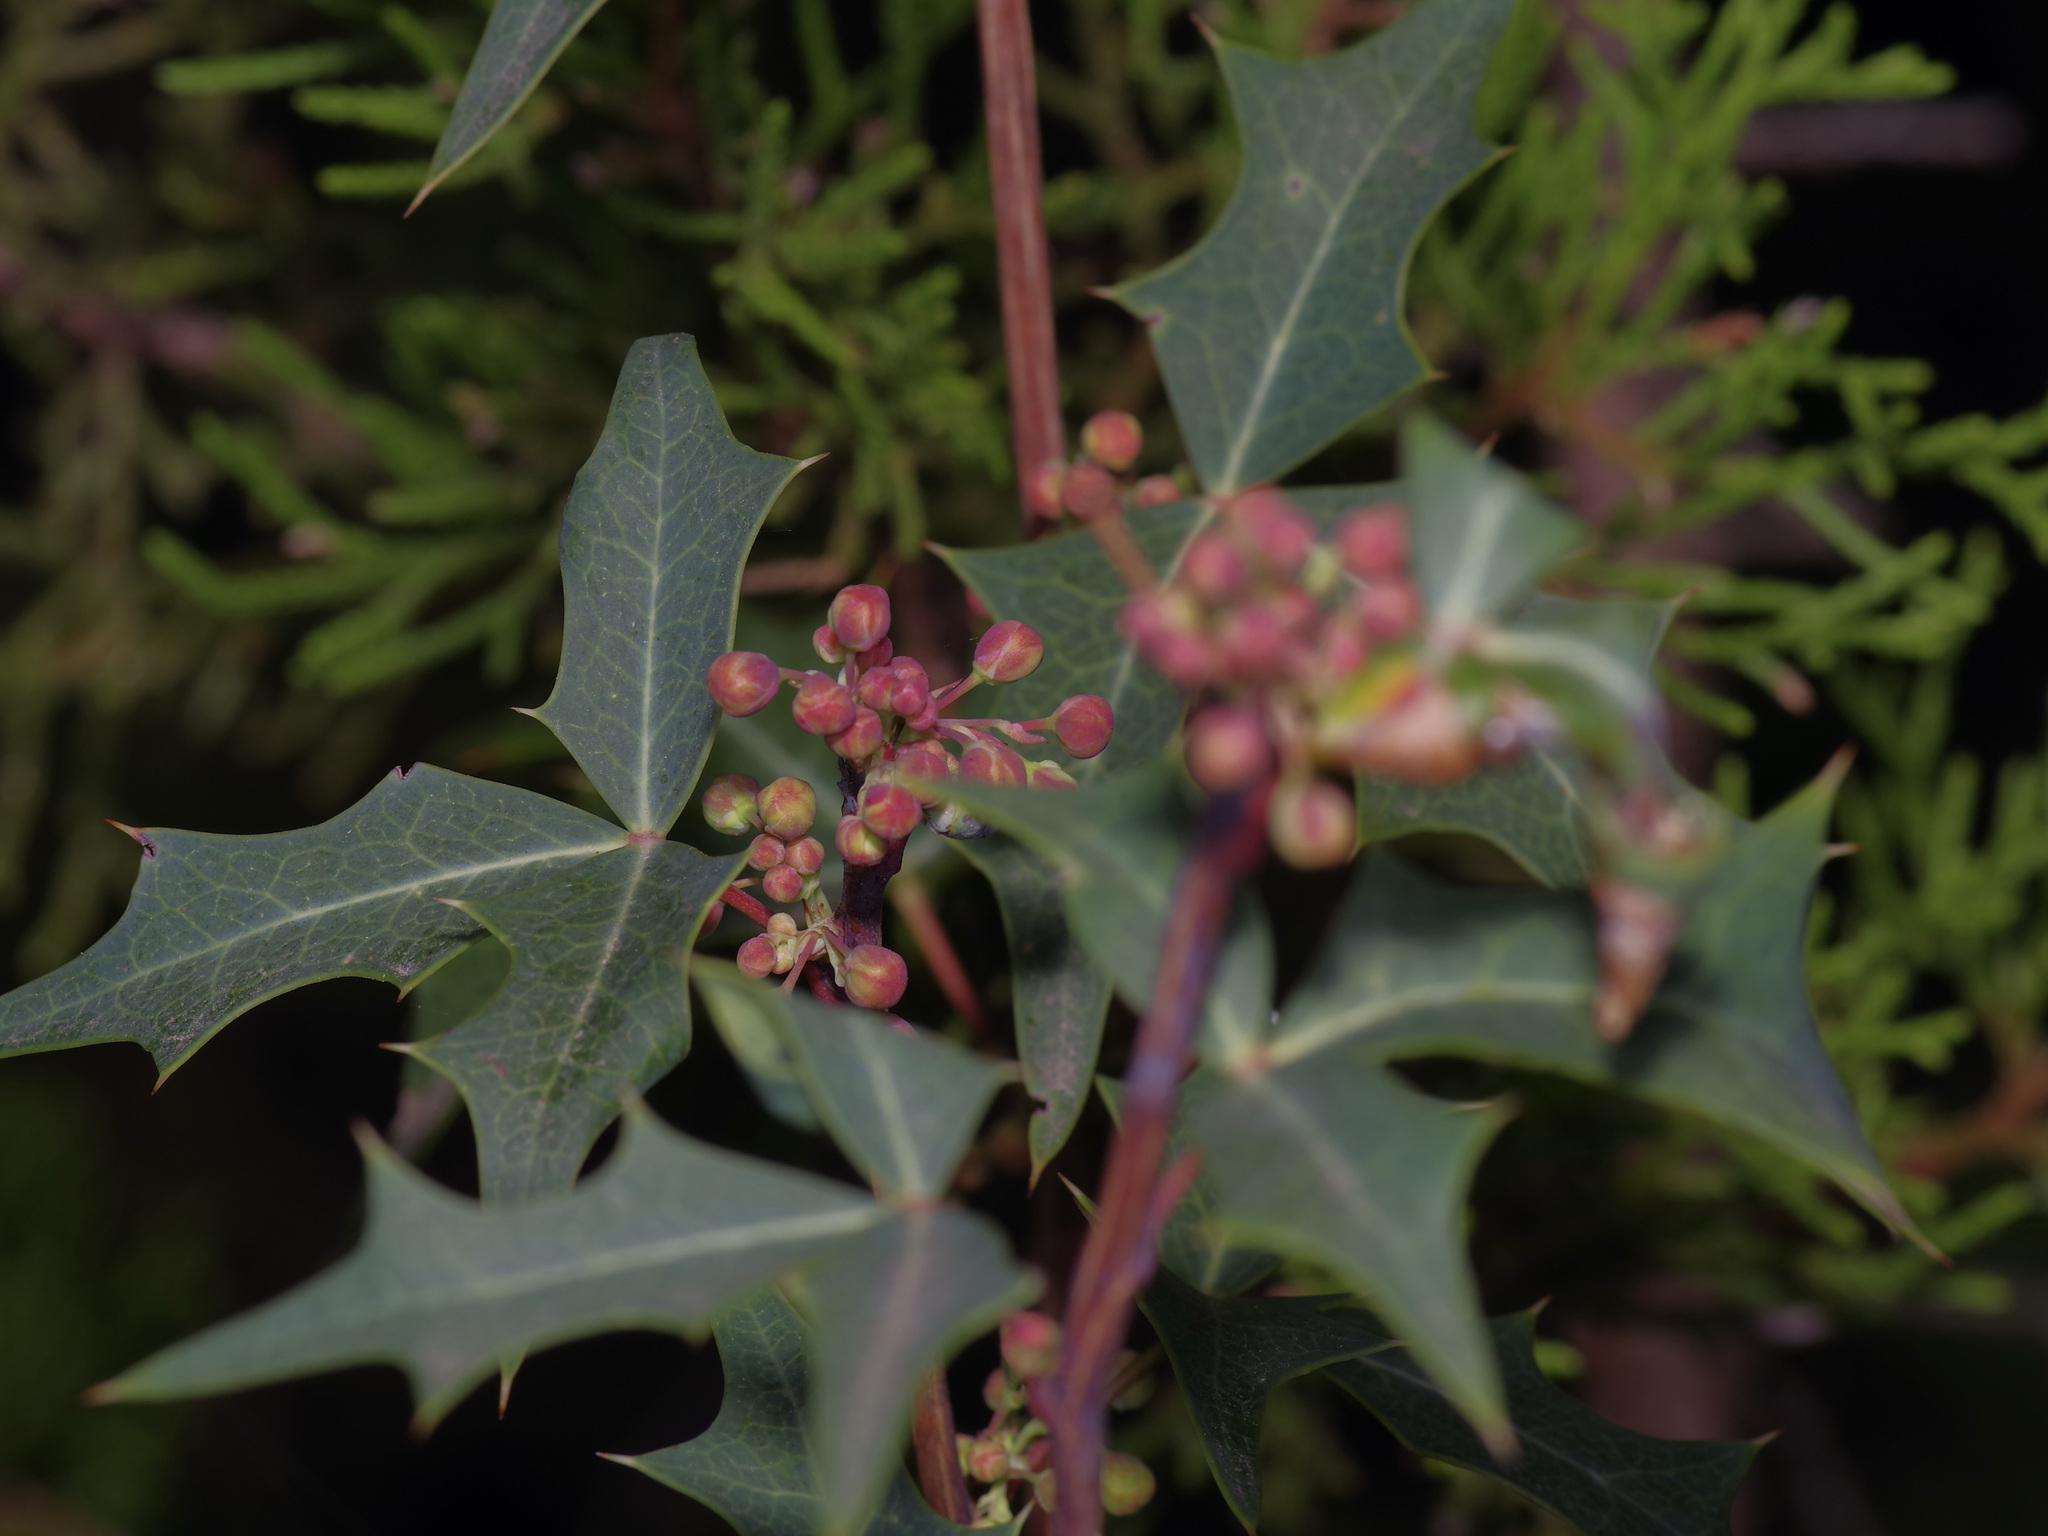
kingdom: Plantae
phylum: Tracheophyta
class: Magnoliopsida
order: Ranunculales
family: Berberidaceae
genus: Alloberberis
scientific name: Alloberberis trifoliolata
